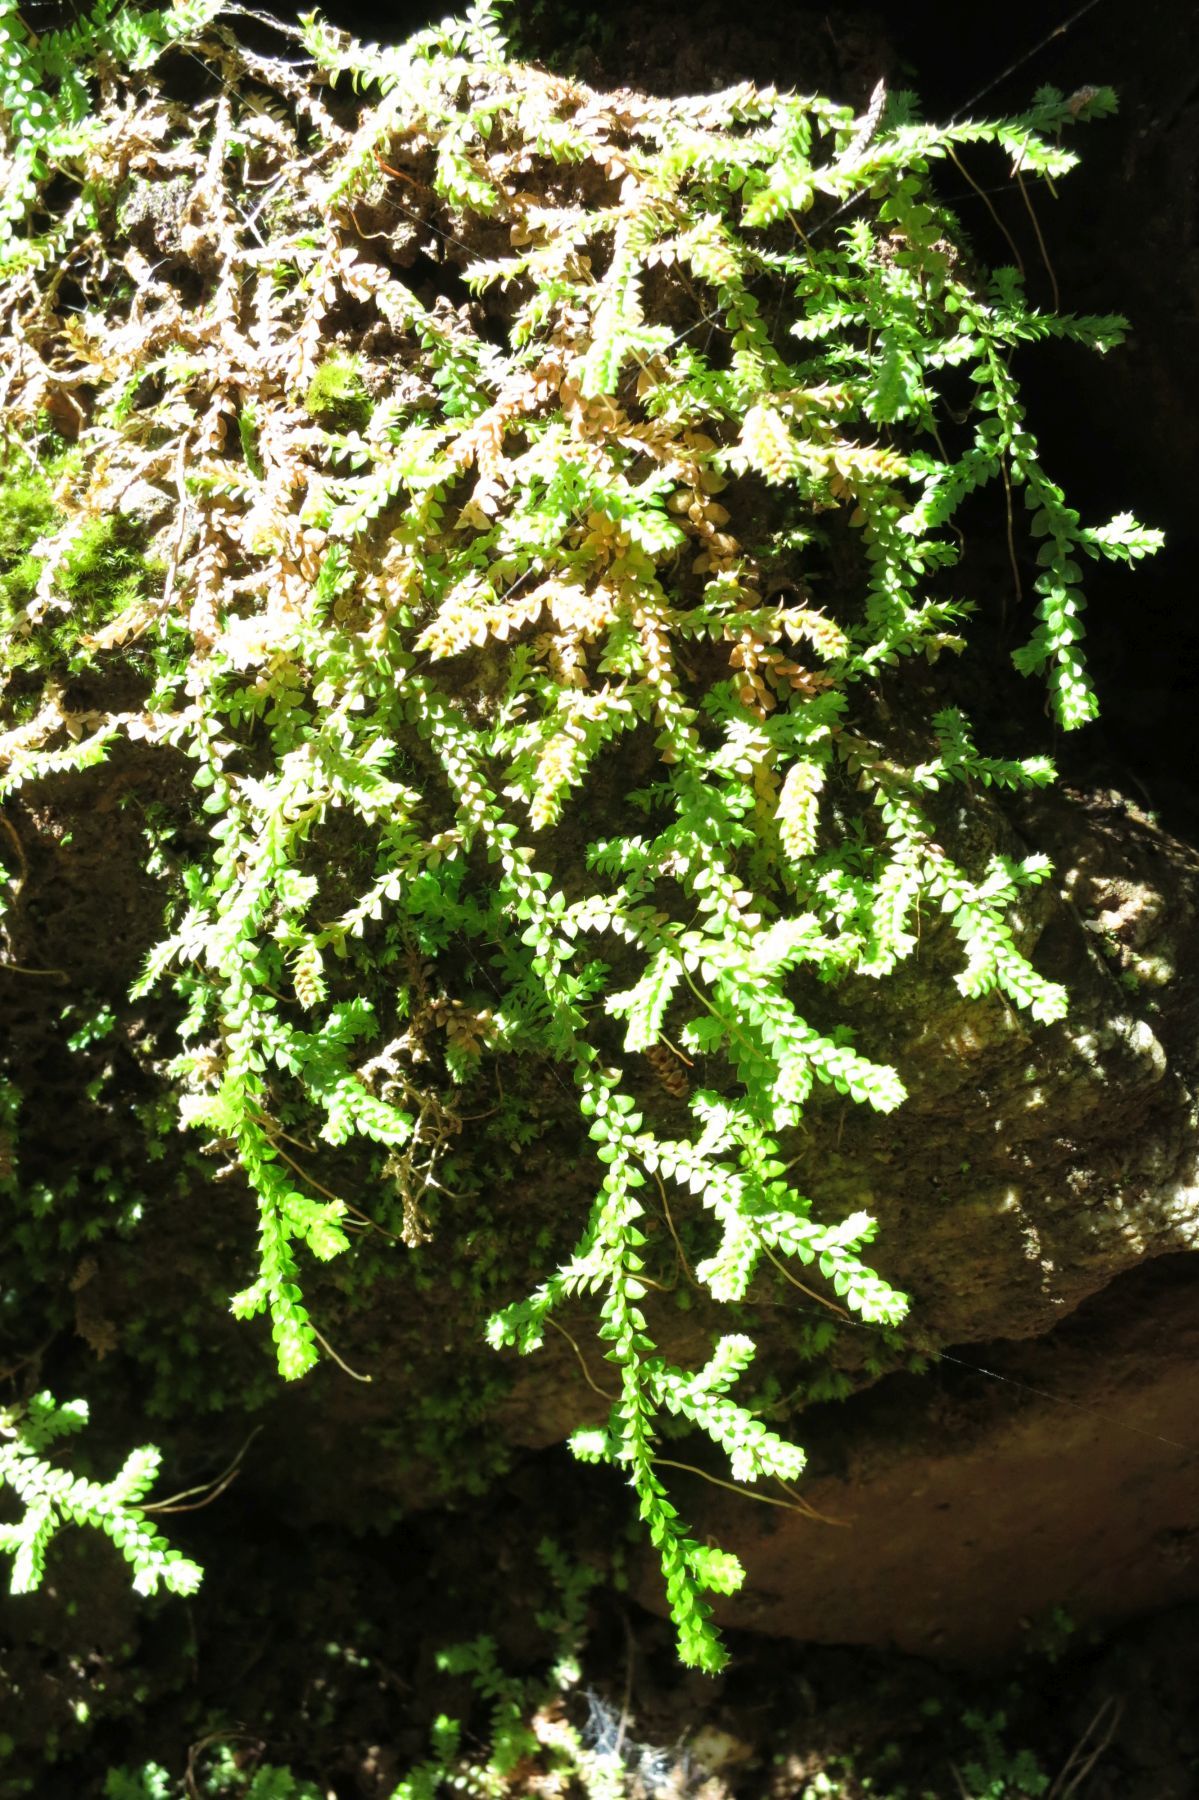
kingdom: Plantae
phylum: Tracheophyta
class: Lycopodiopsida
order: Selaginellales
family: Selaginellaceae
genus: Selaginella
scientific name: Selaginella denticulata
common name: Toothed-leaved clubmoss
